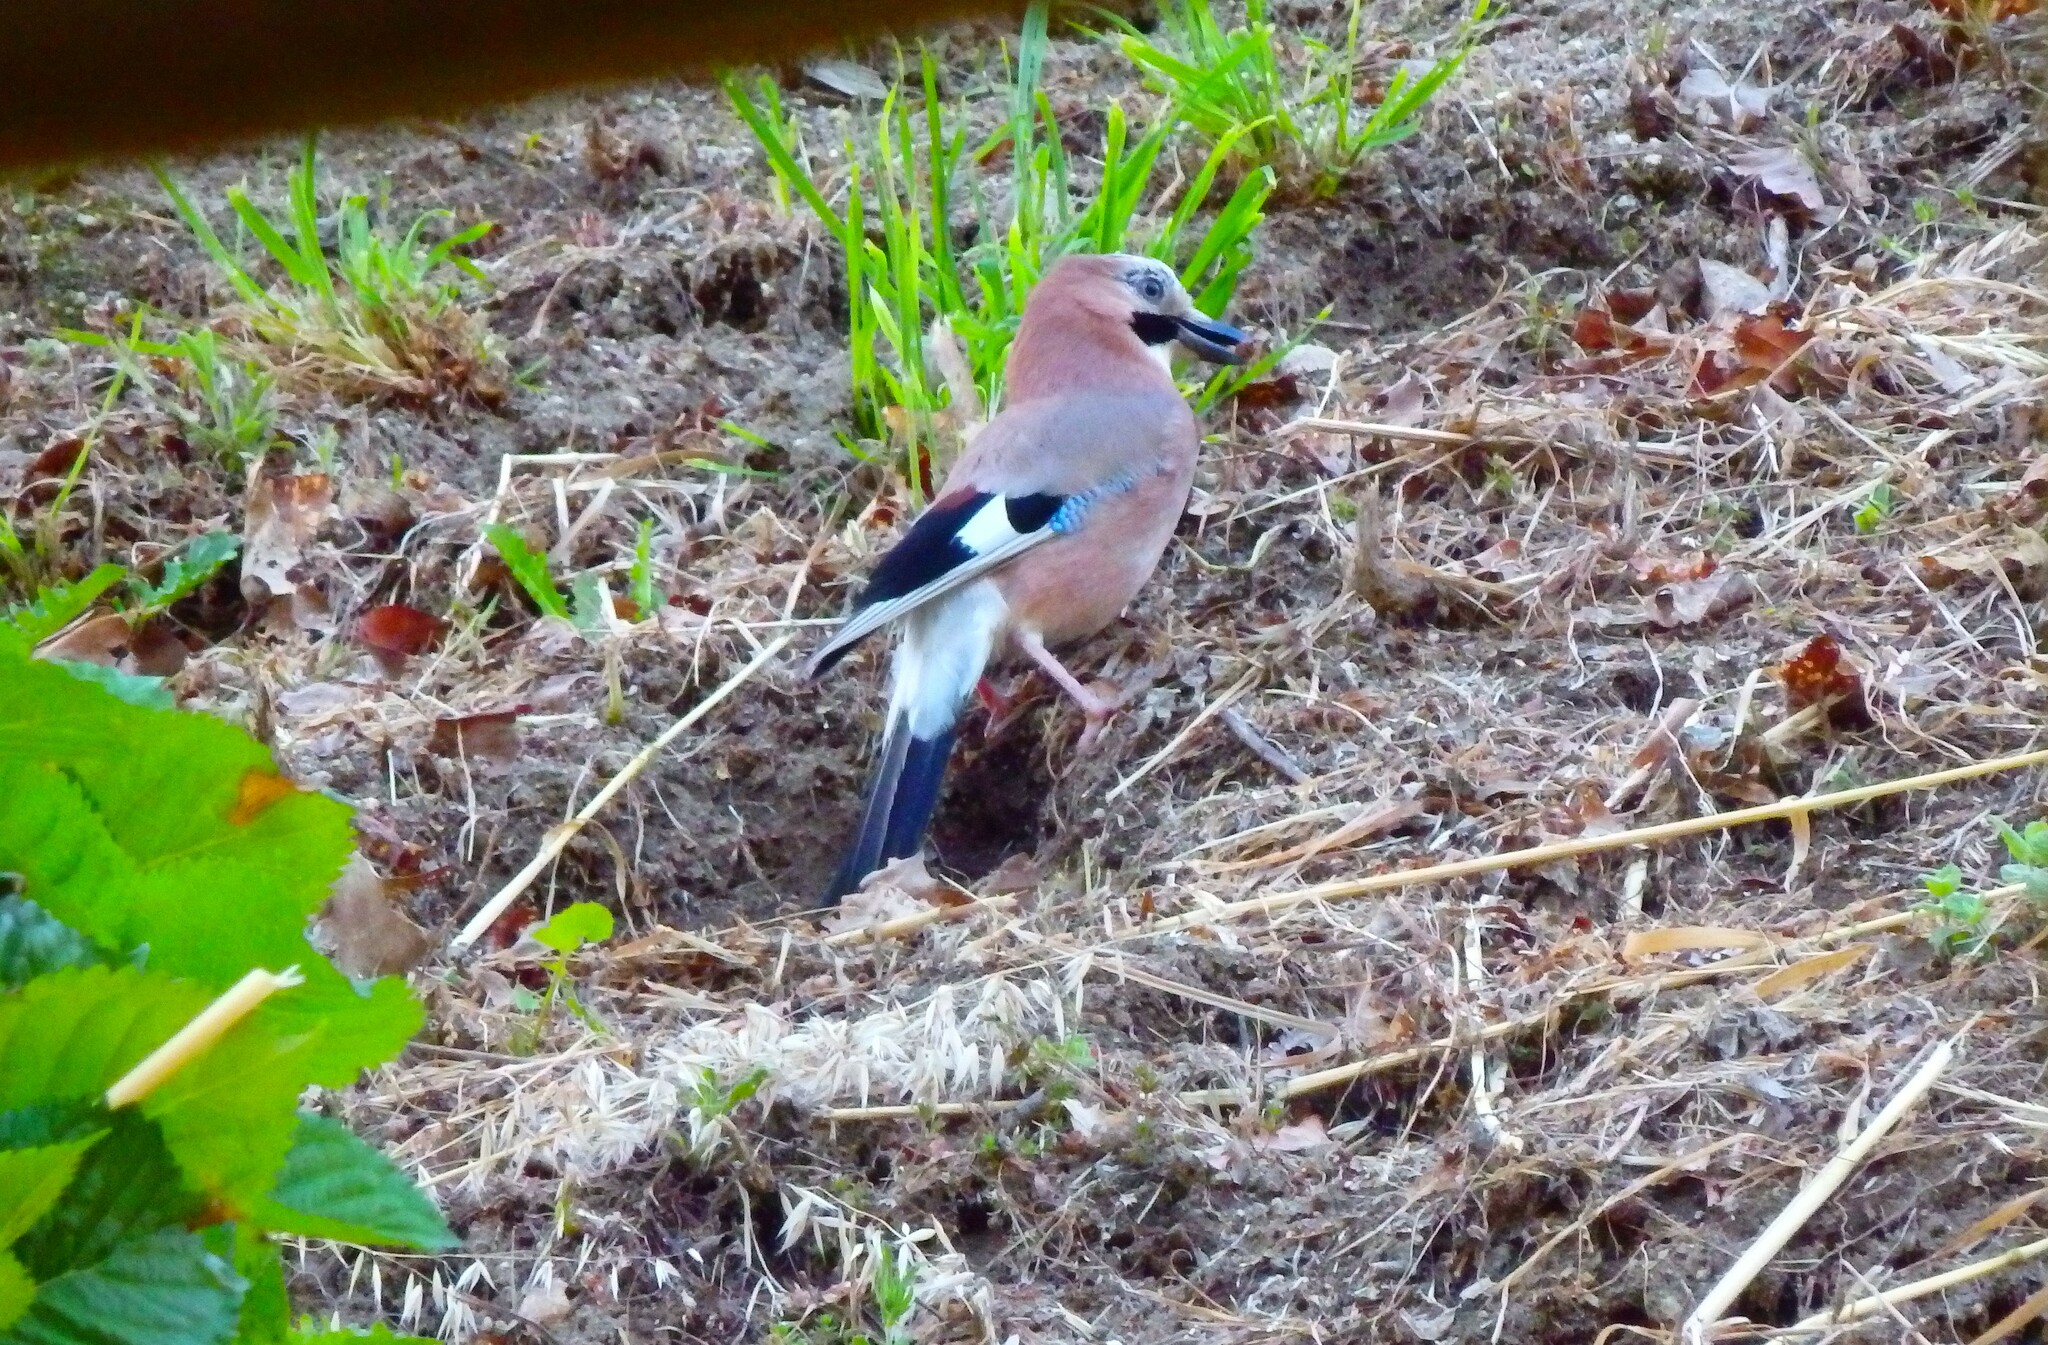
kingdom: Animalia
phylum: Chordata
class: Aves
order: Passeriformes
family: Corvidae
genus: Garrulus
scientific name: Garrulus glandarius
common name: Eurasian jay
